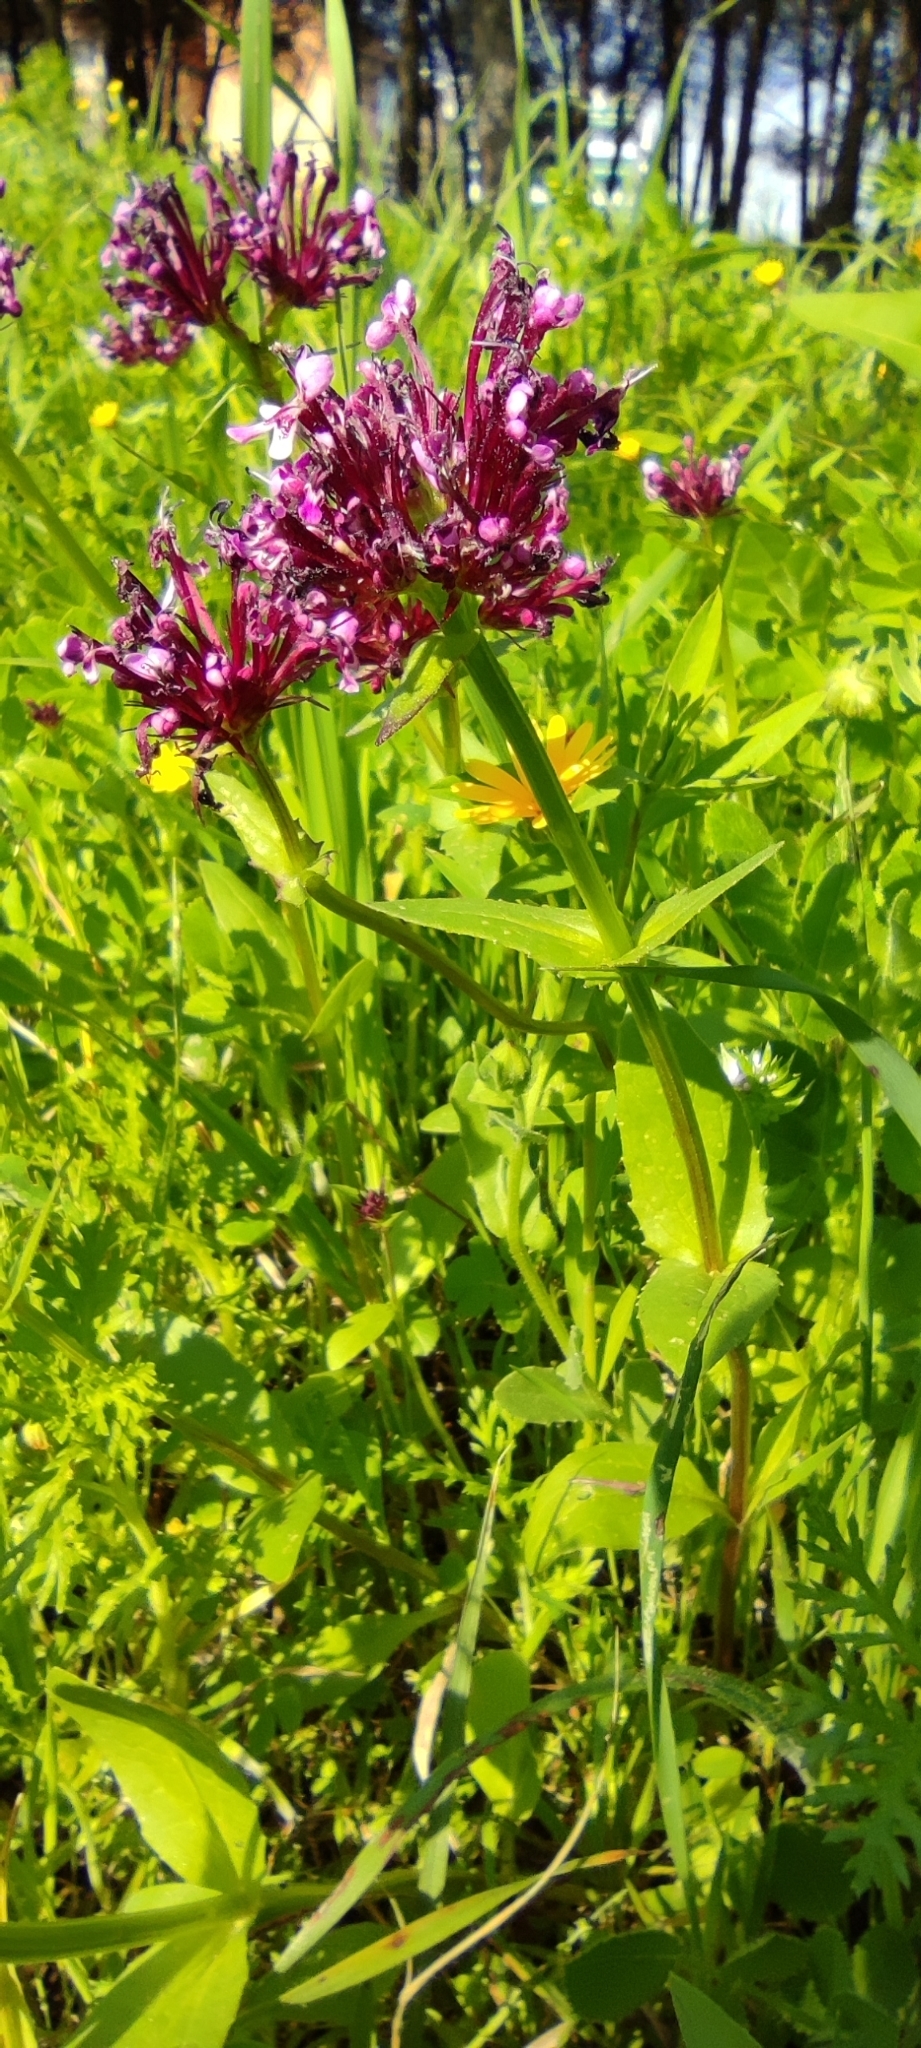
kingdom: Plantae
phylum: Tracheophyta
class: Magnoliopsida
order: Dipsacales
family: Caprifoliaceae
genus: Fedia
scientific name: Fedia cornucopiae
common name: Horn-of-plenty
